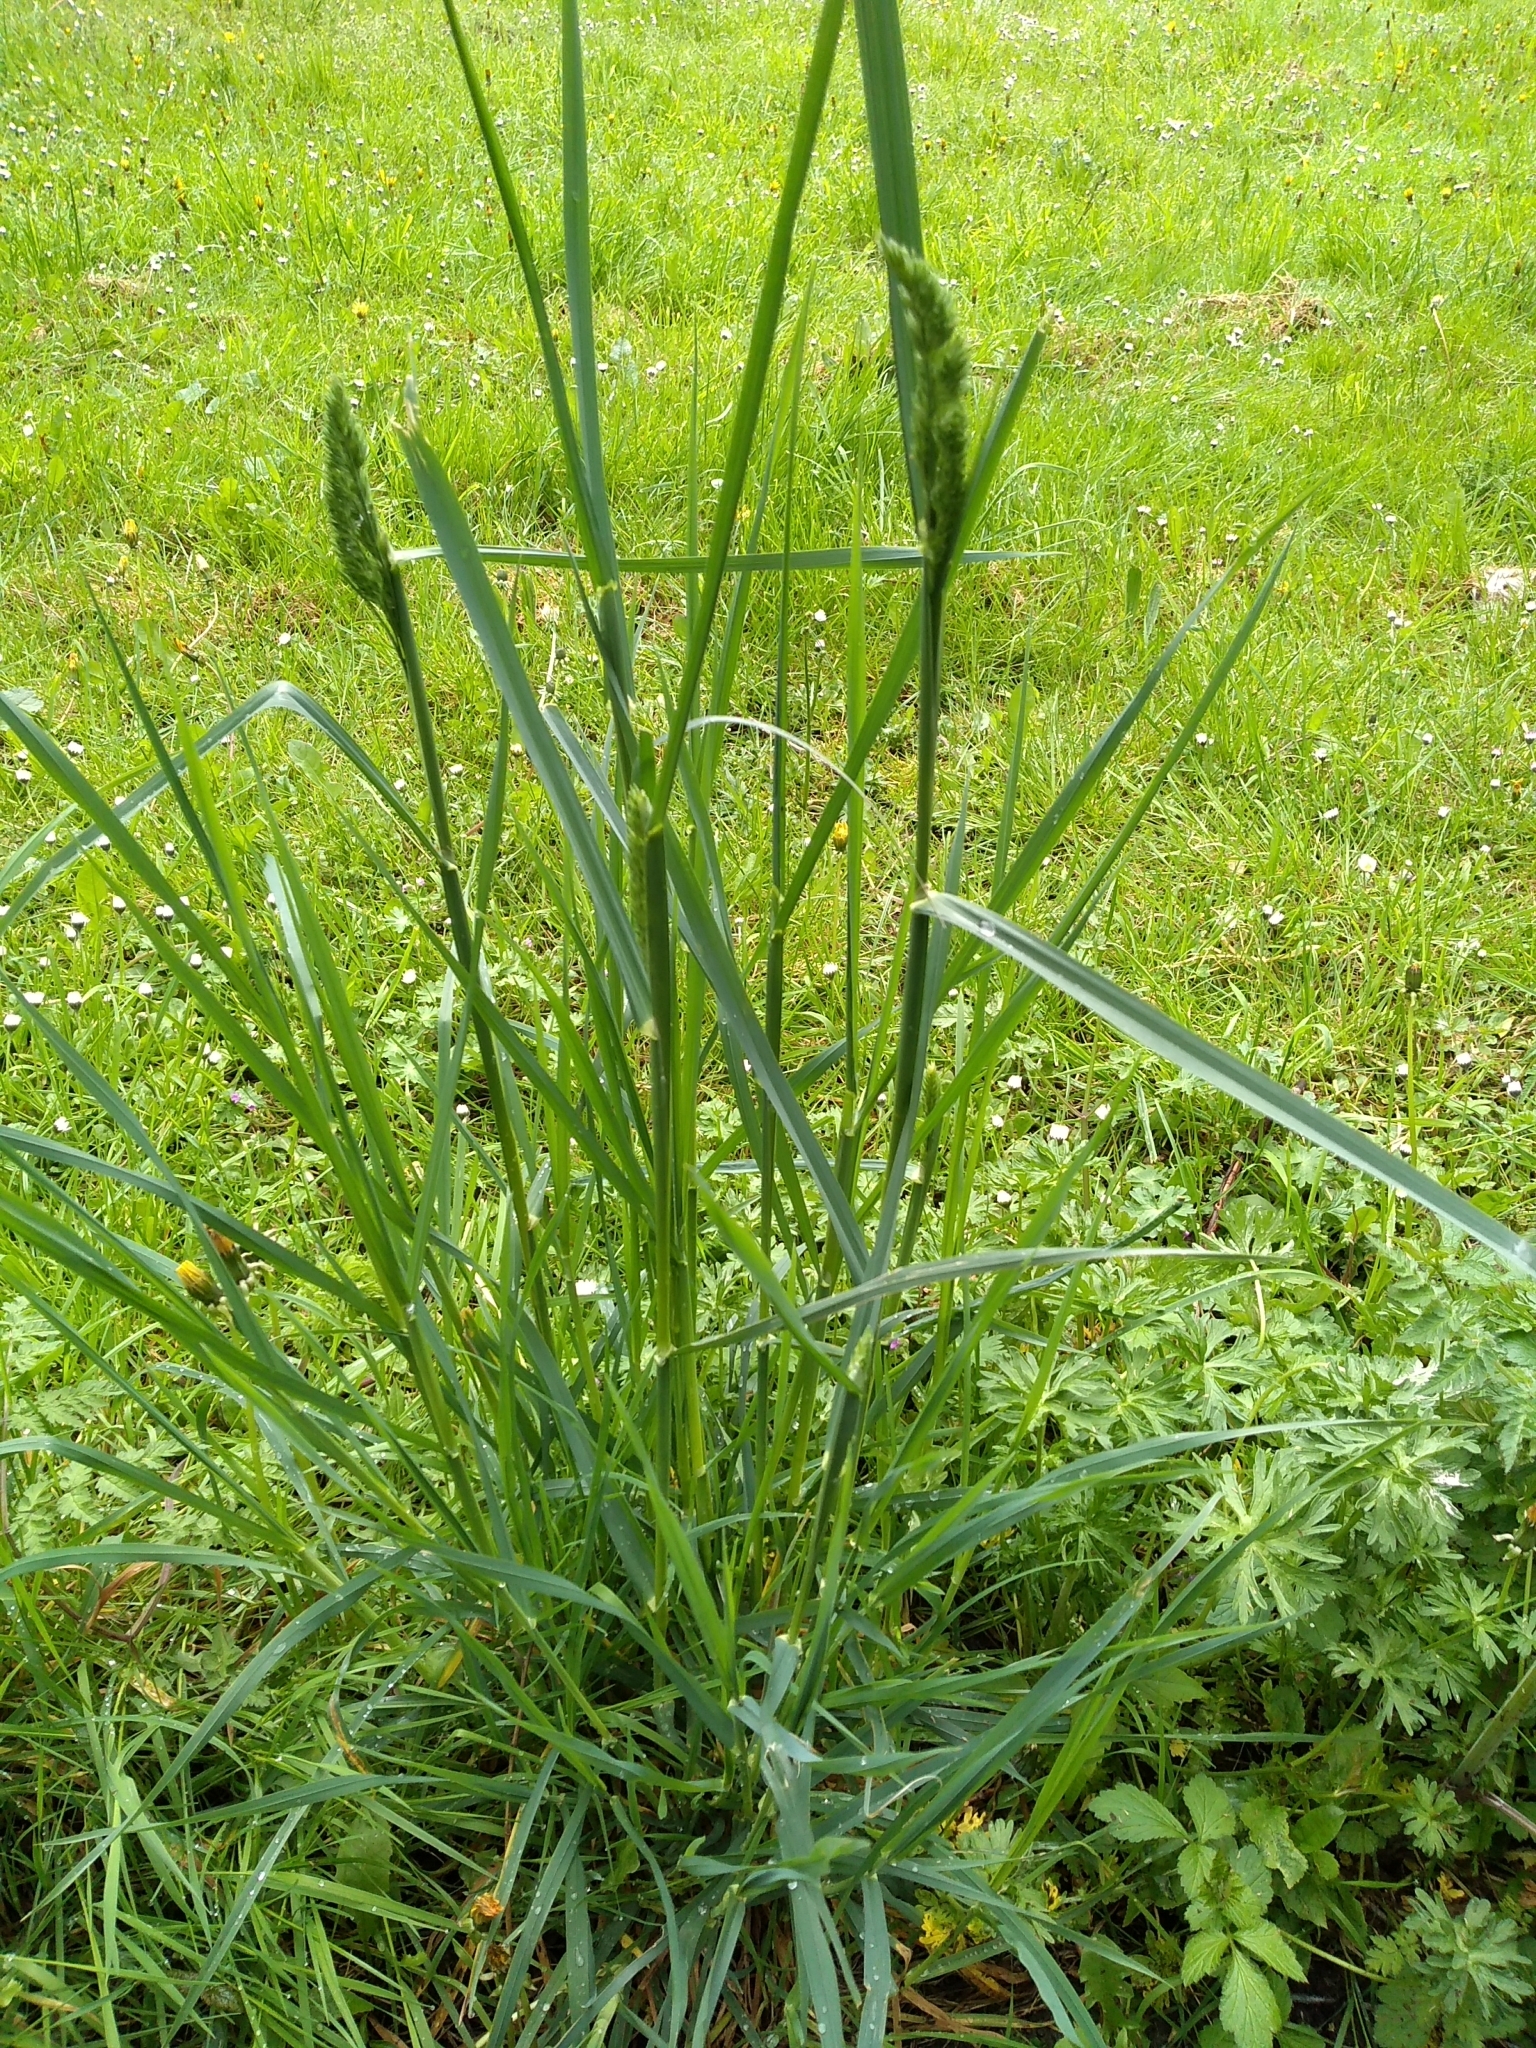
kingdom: Plantae
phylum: Tracheophyta
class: Liliopsida
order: Poales
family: Poaceae
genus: Dactylis
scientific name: Dactylis glomerata
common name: Orchardgrass
